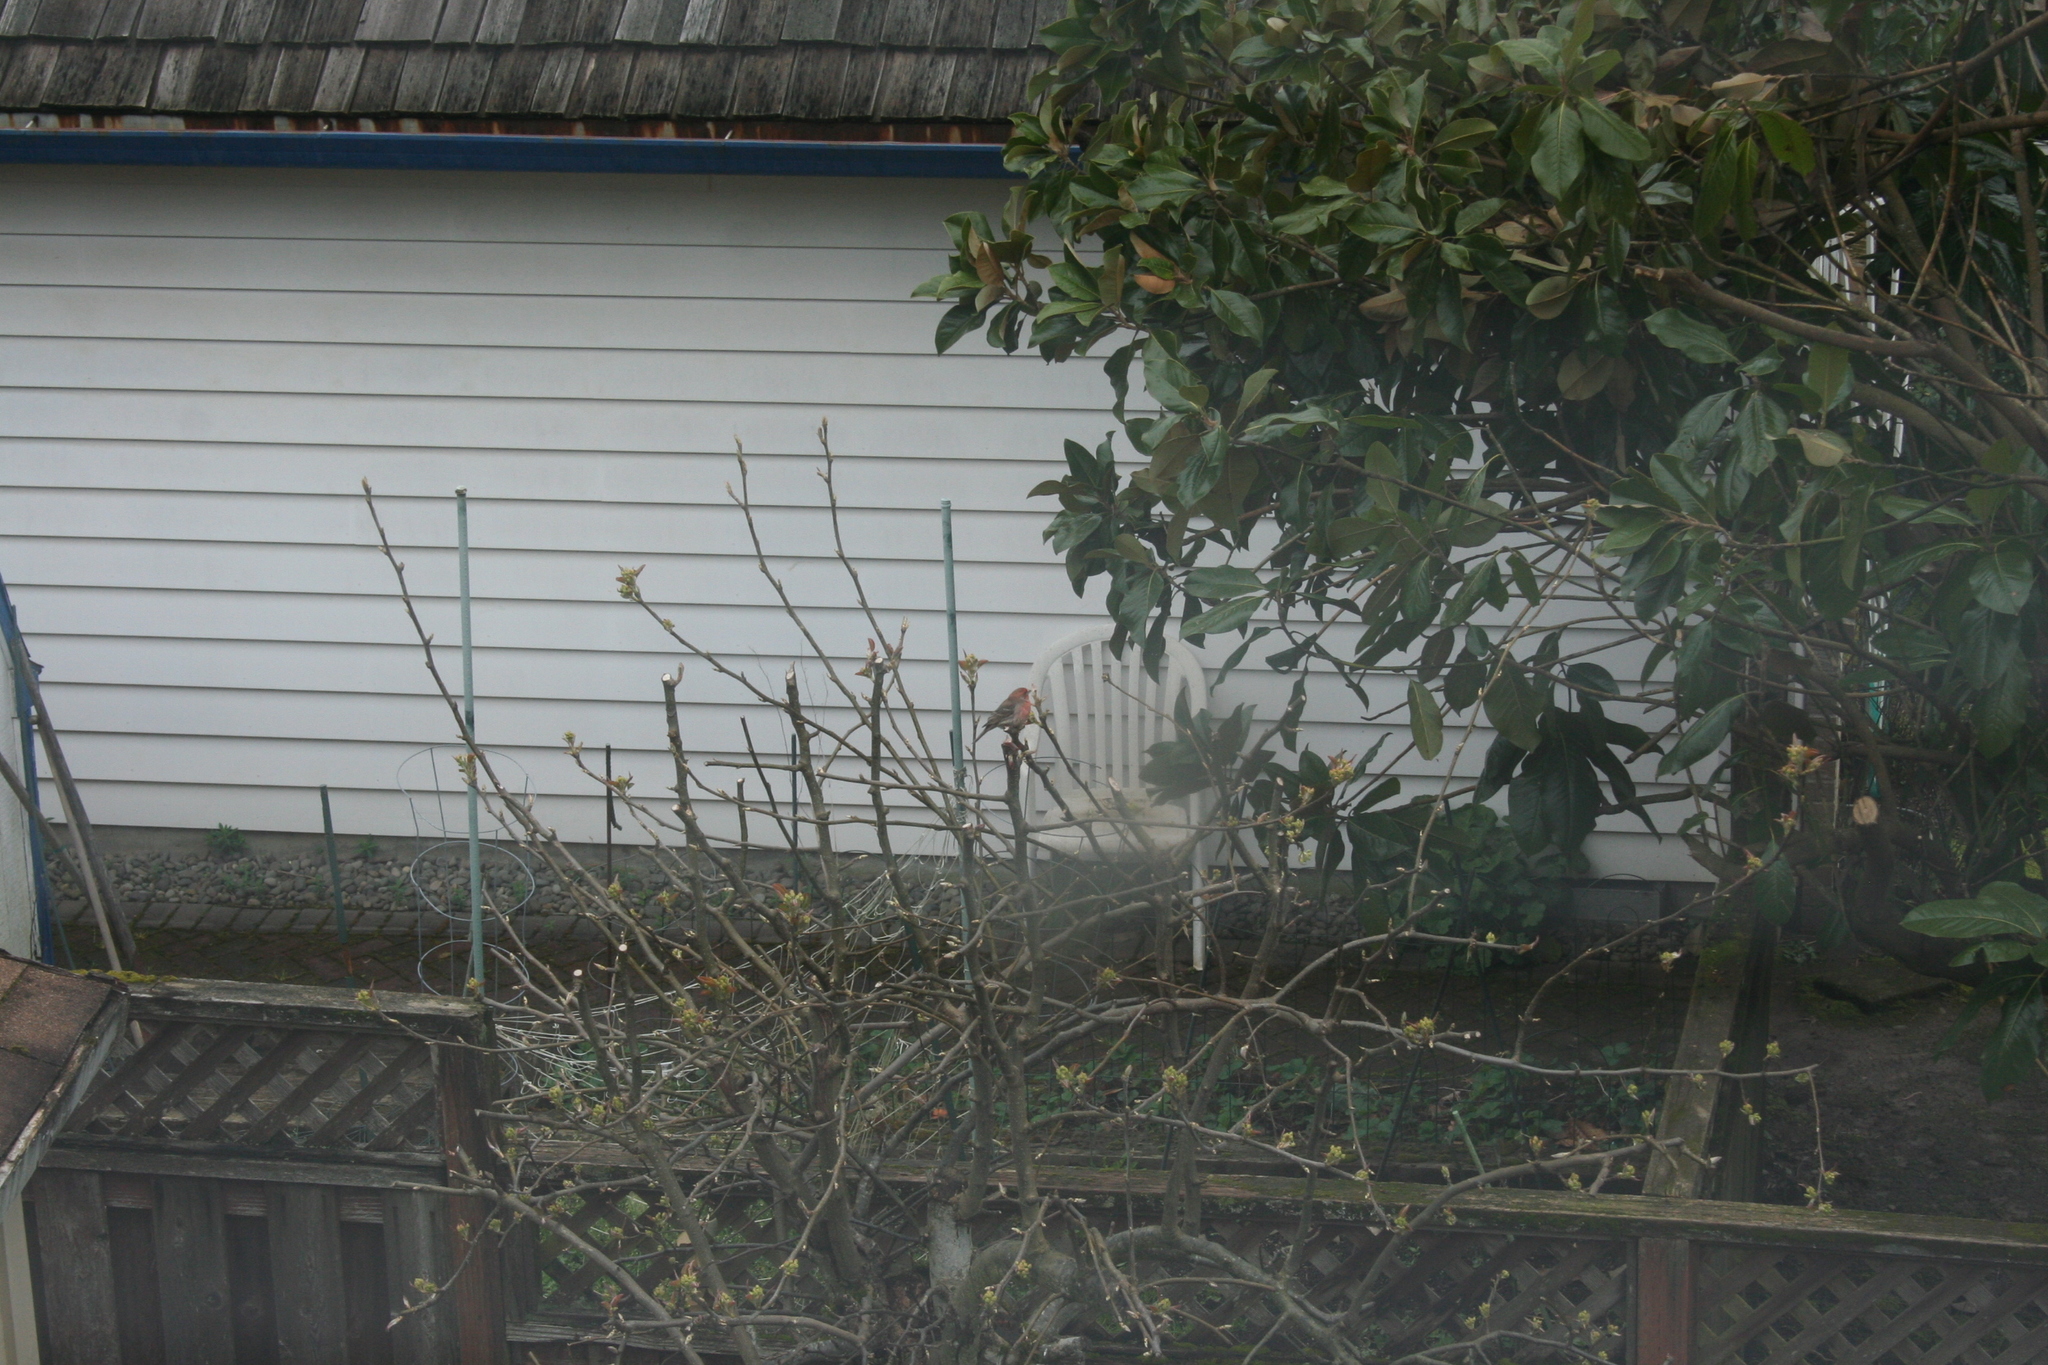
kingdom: Animalia
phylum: Chordata
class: Aves
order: Passeriformes
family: Fringillidae
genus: Haemorhous
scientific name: Haemorhous mexicanus
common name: House finch
